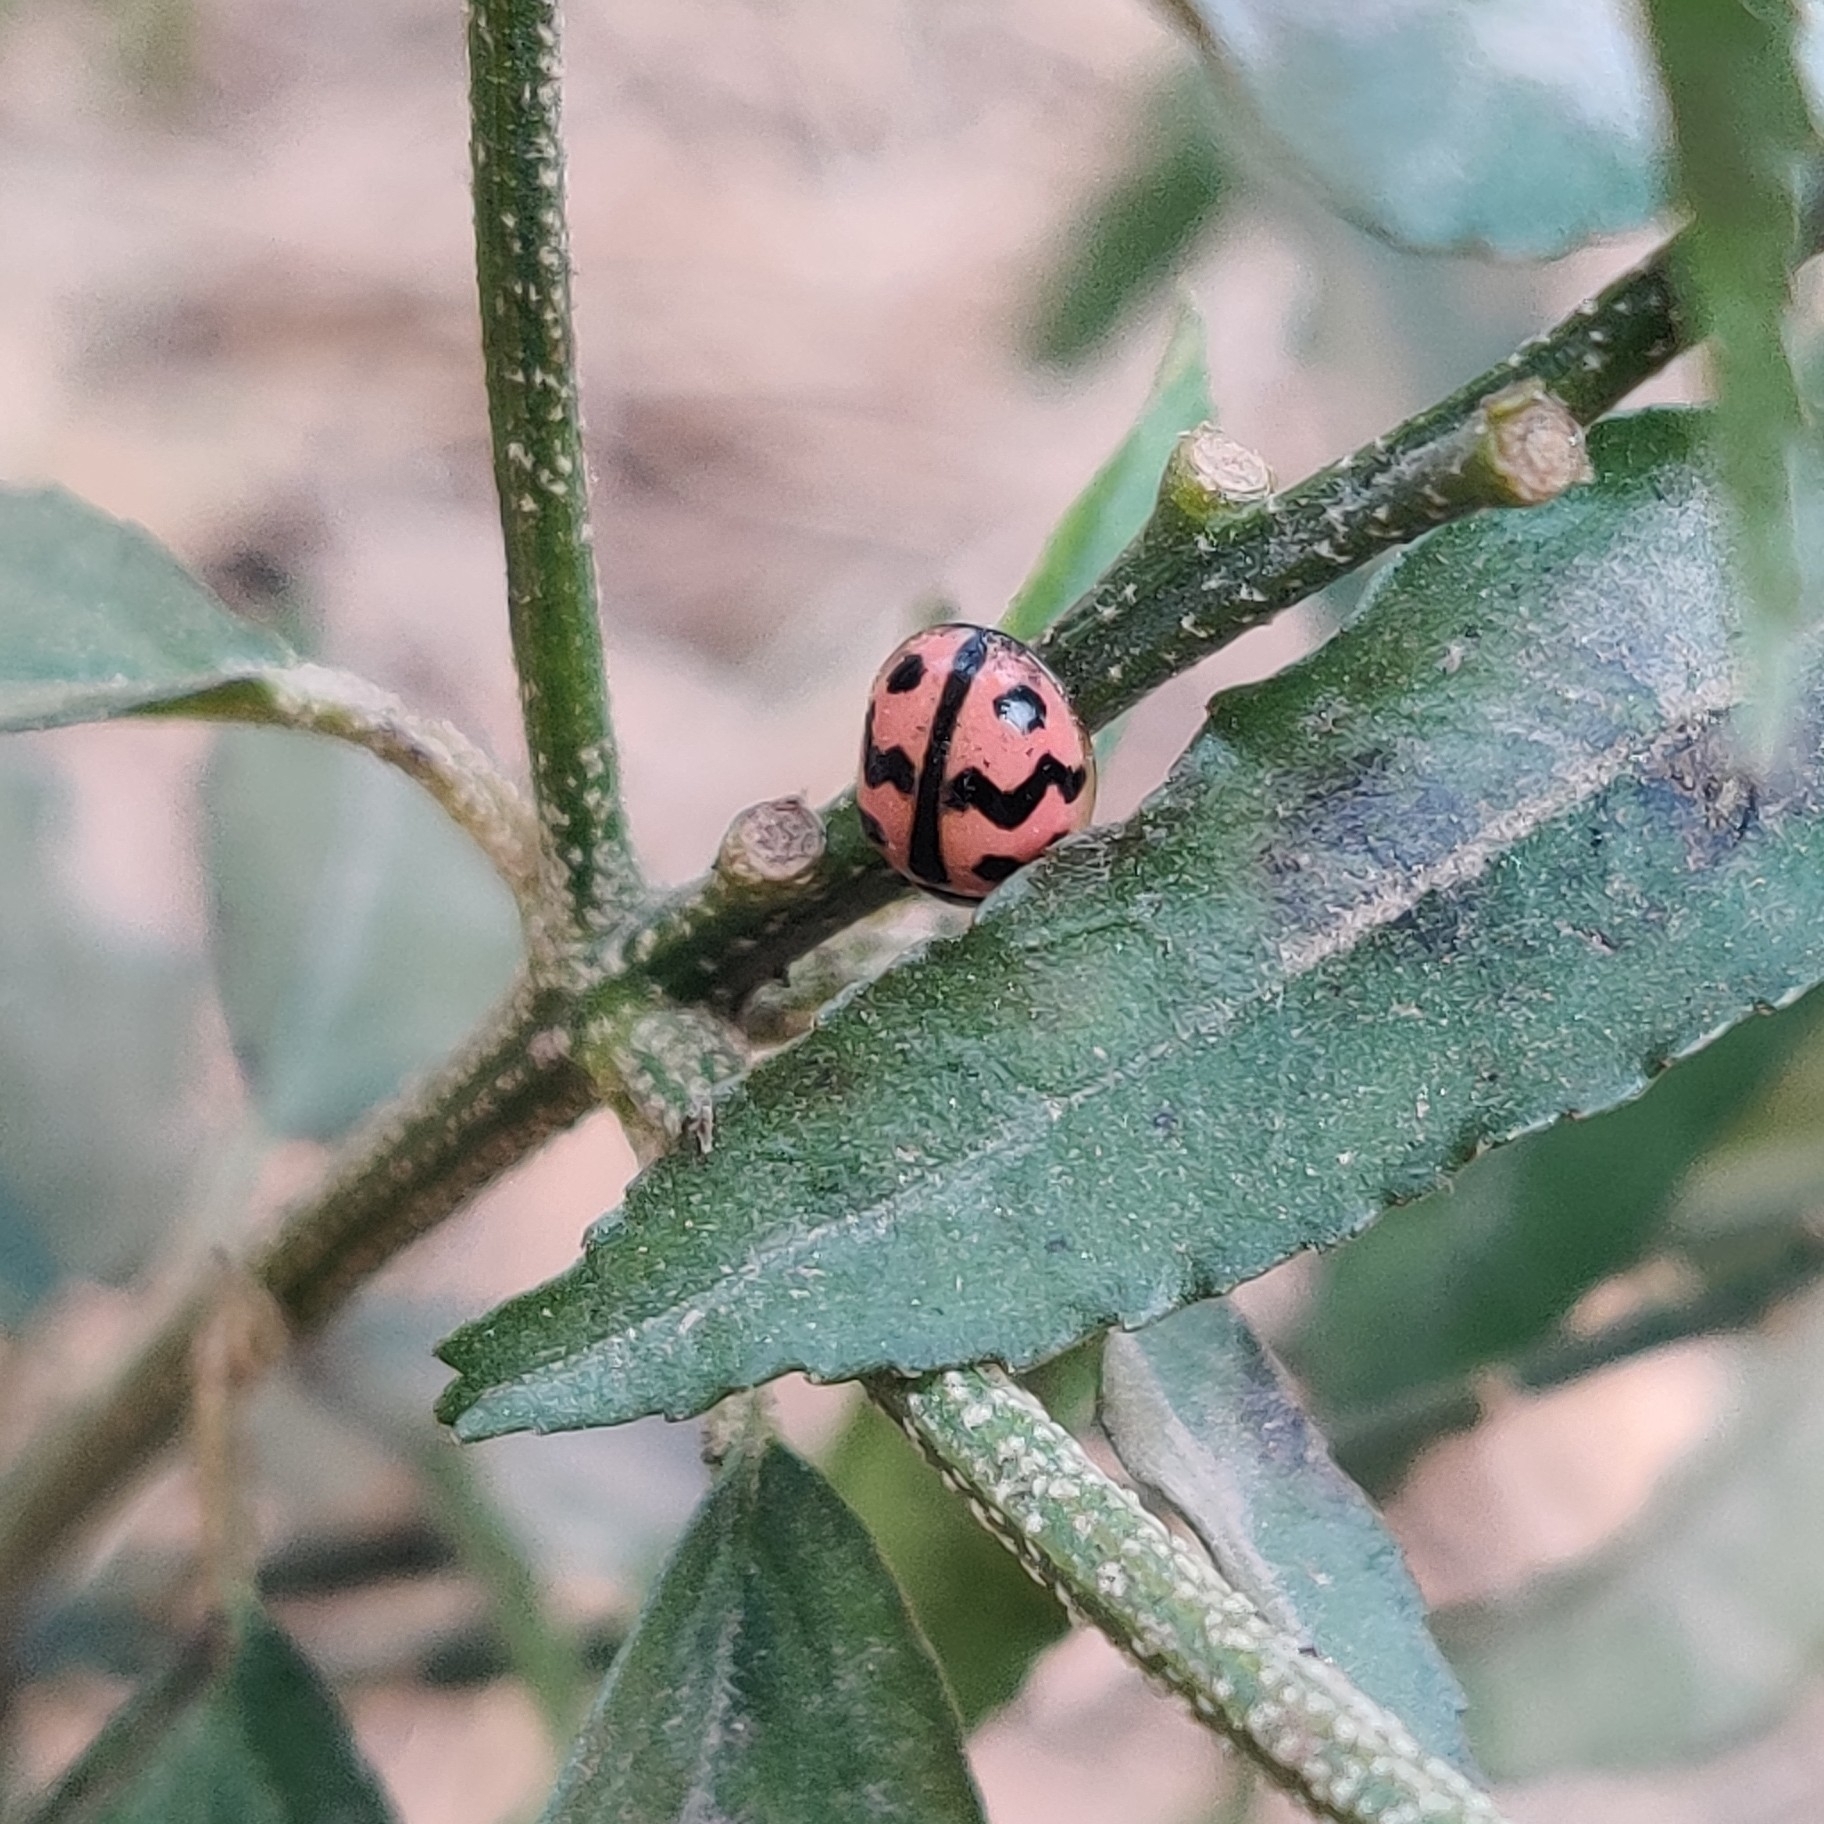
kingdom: Animalia
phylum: Arthropoda
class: Insecta
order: Coleoptera
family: Coccinellidae
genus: Cheilomenes
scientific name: Cheilomenes sexmaculata
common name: Ladybird beetle
